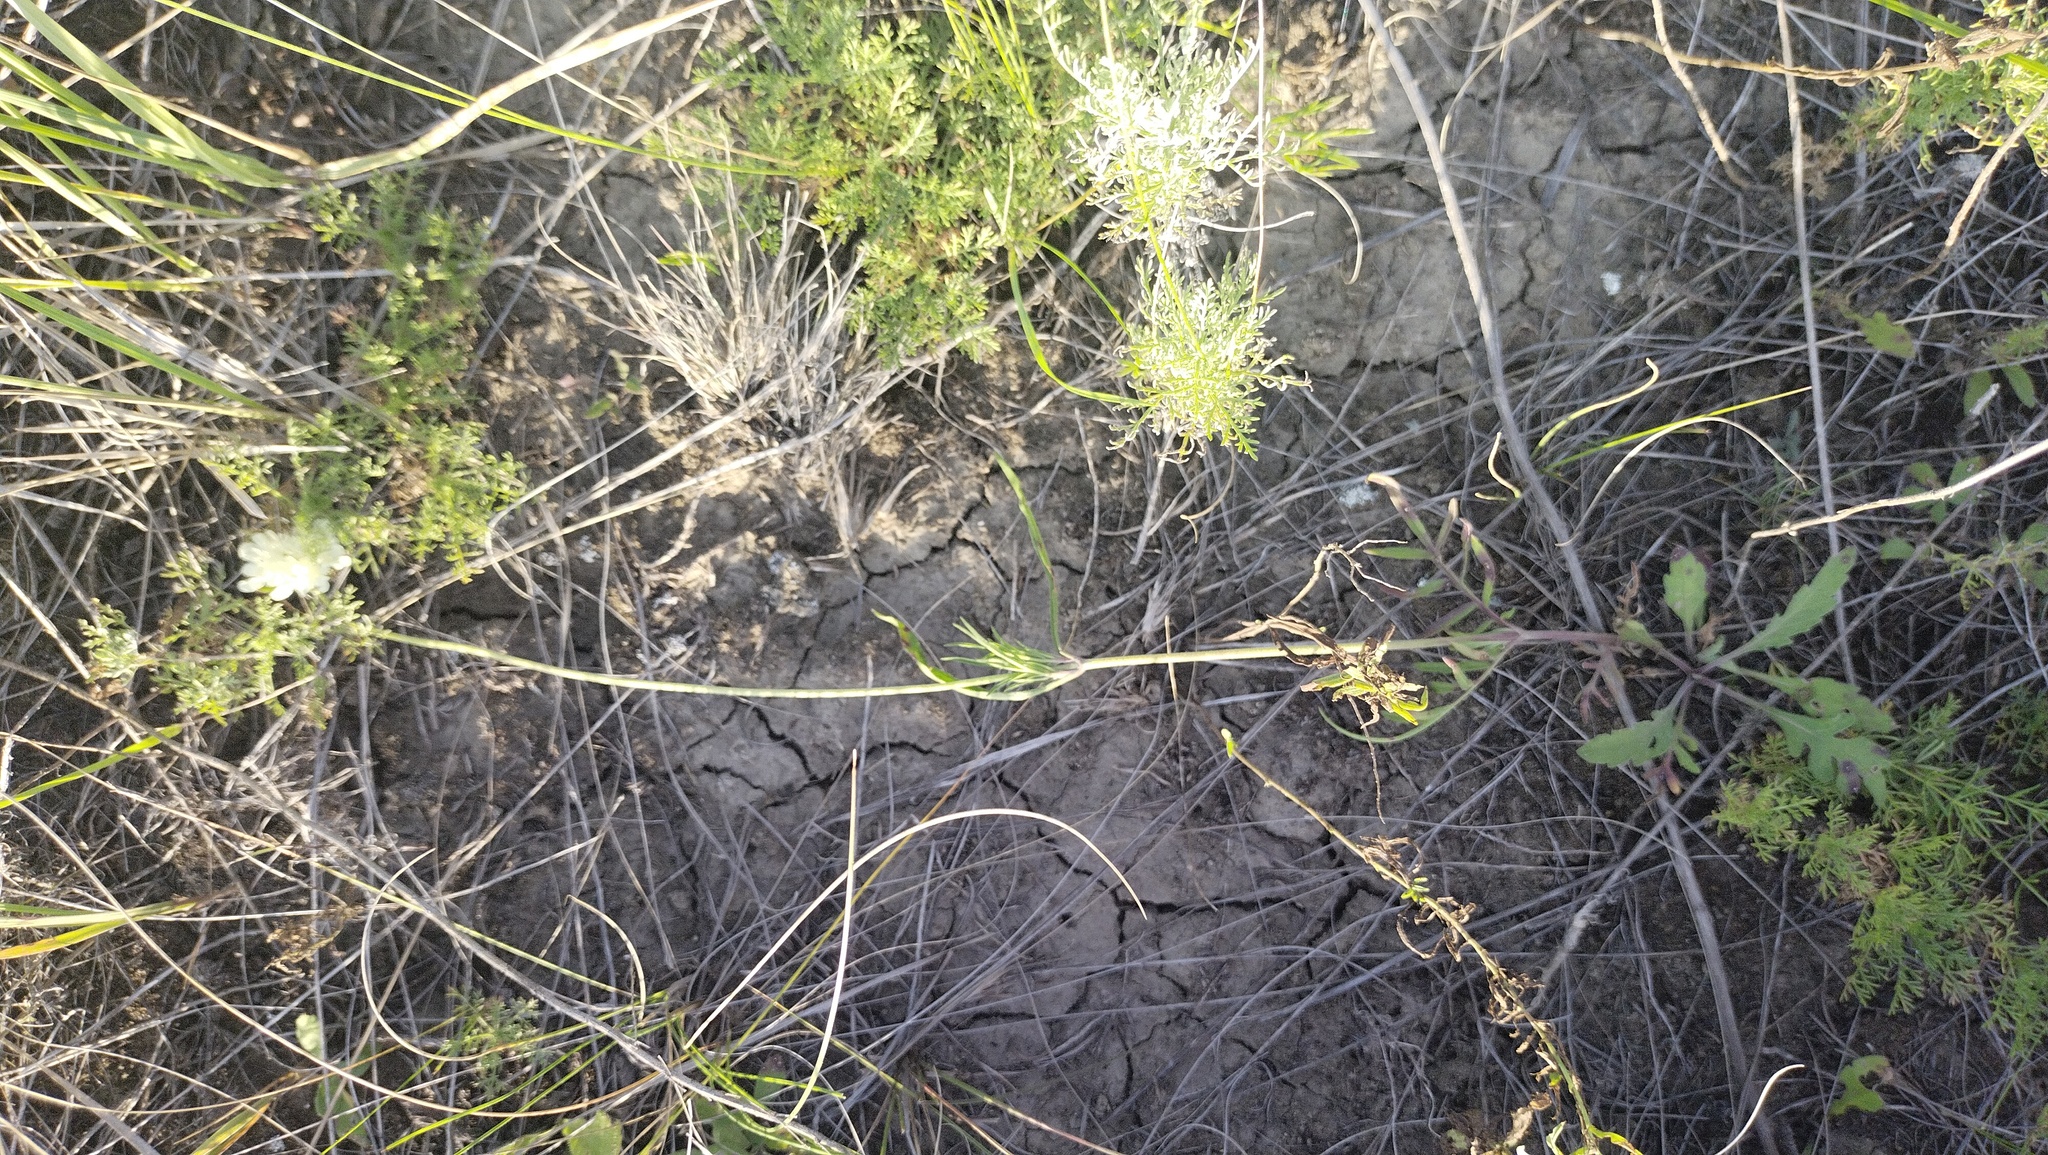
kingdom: Plantae
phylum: Tracheophyta
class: Magnoliopsida
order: Dipsacales
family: Caprifoliaceae
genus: Scabiosa
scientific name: Scabiosa ochroleuca
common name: Cream pincushions
